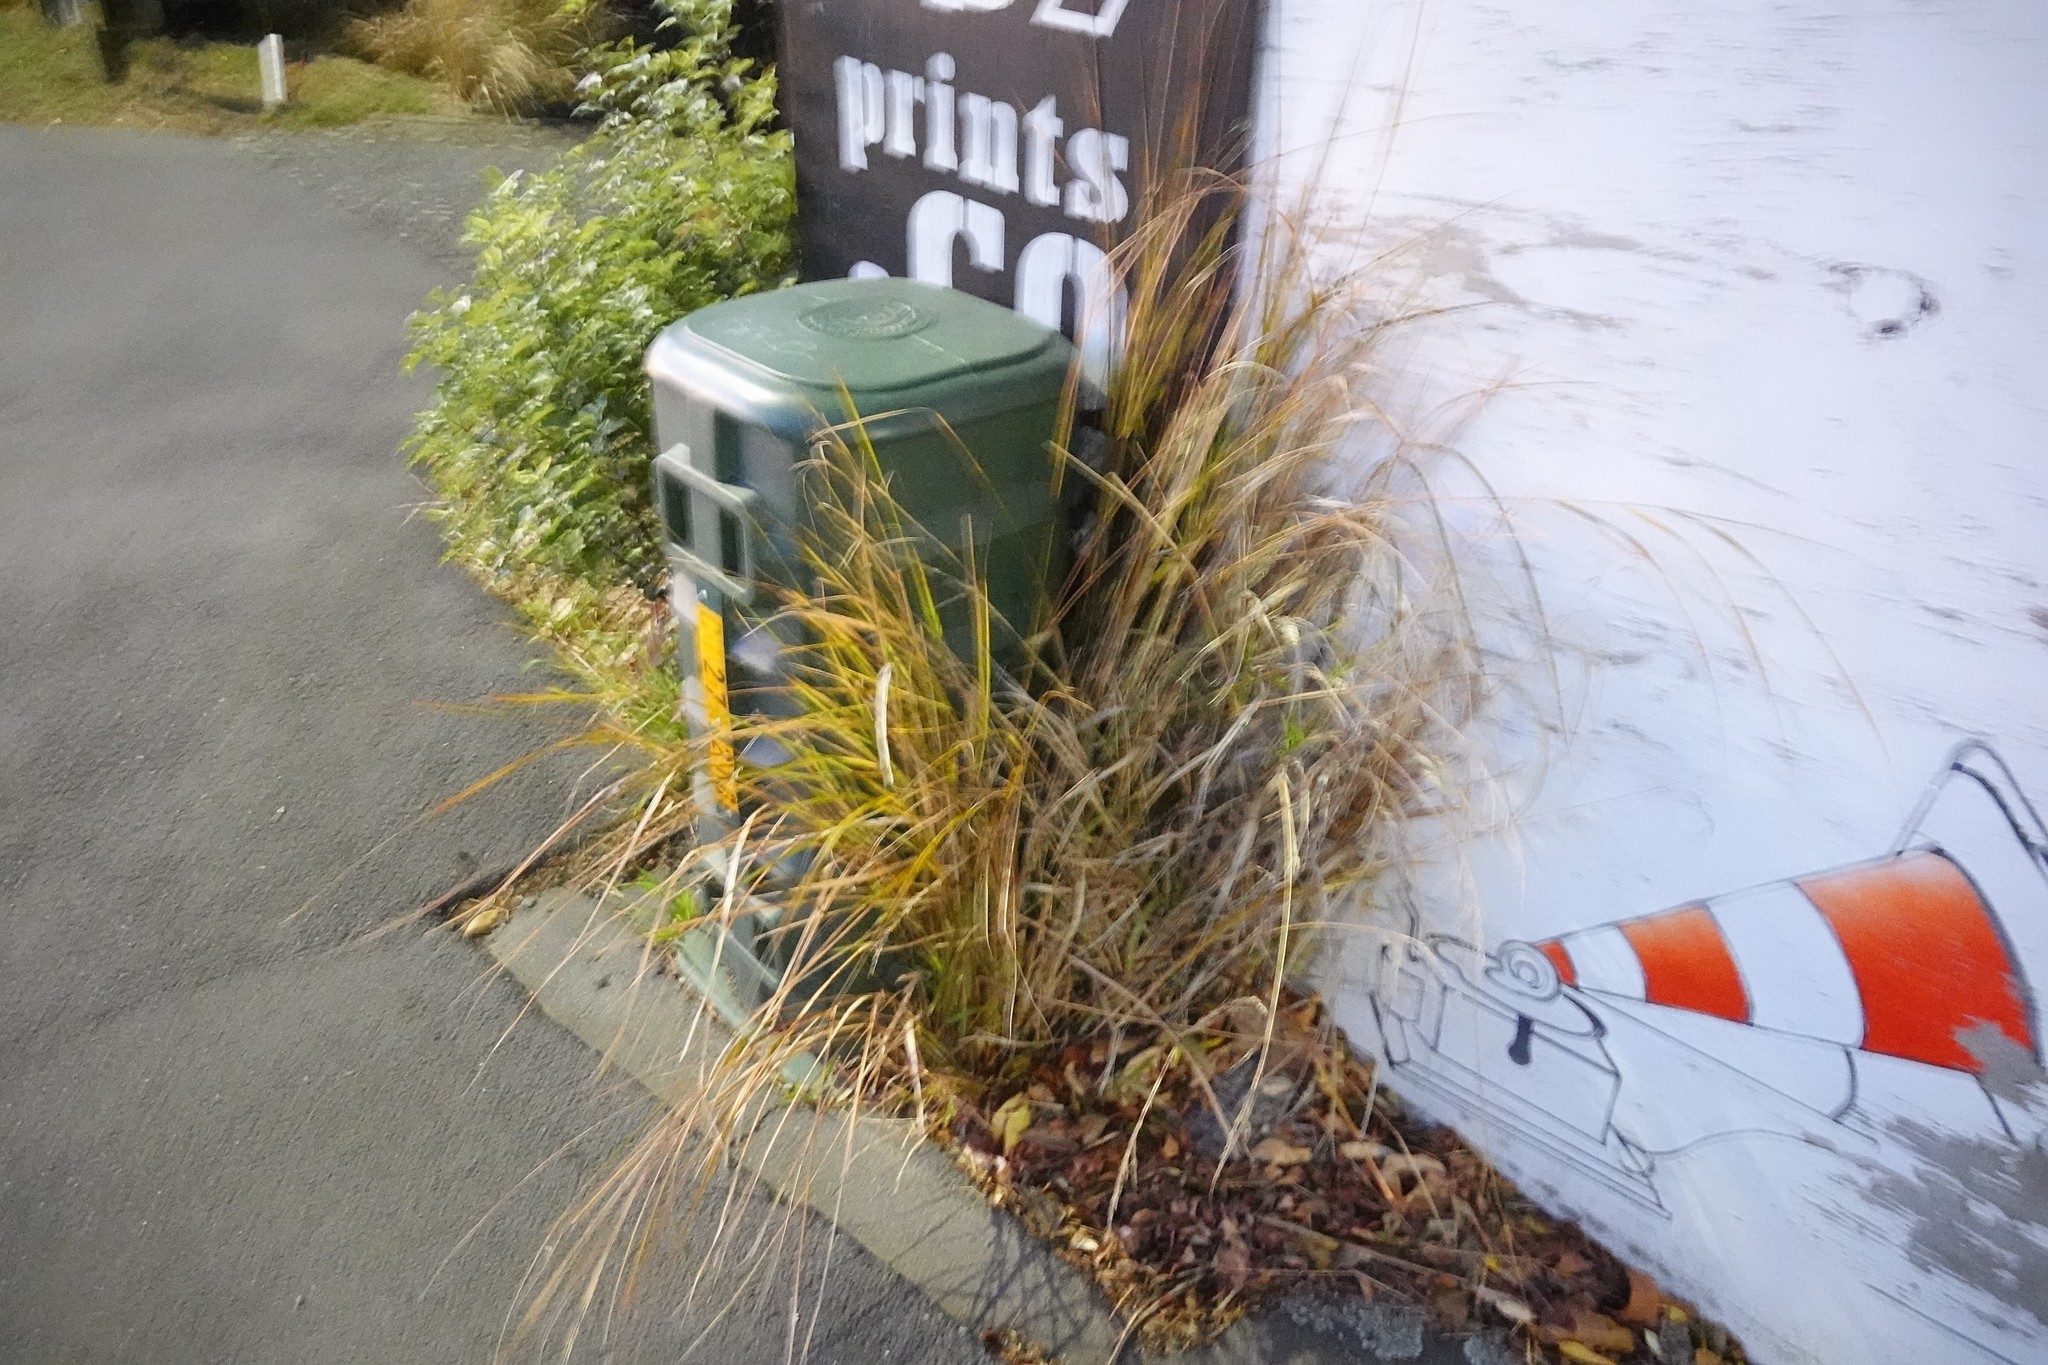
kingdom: Plantae
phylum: Tracheophyta
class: Liliopsida
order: Poales
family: Poaceae
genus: Anemanthele
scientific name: Anemanthele lessoniana
